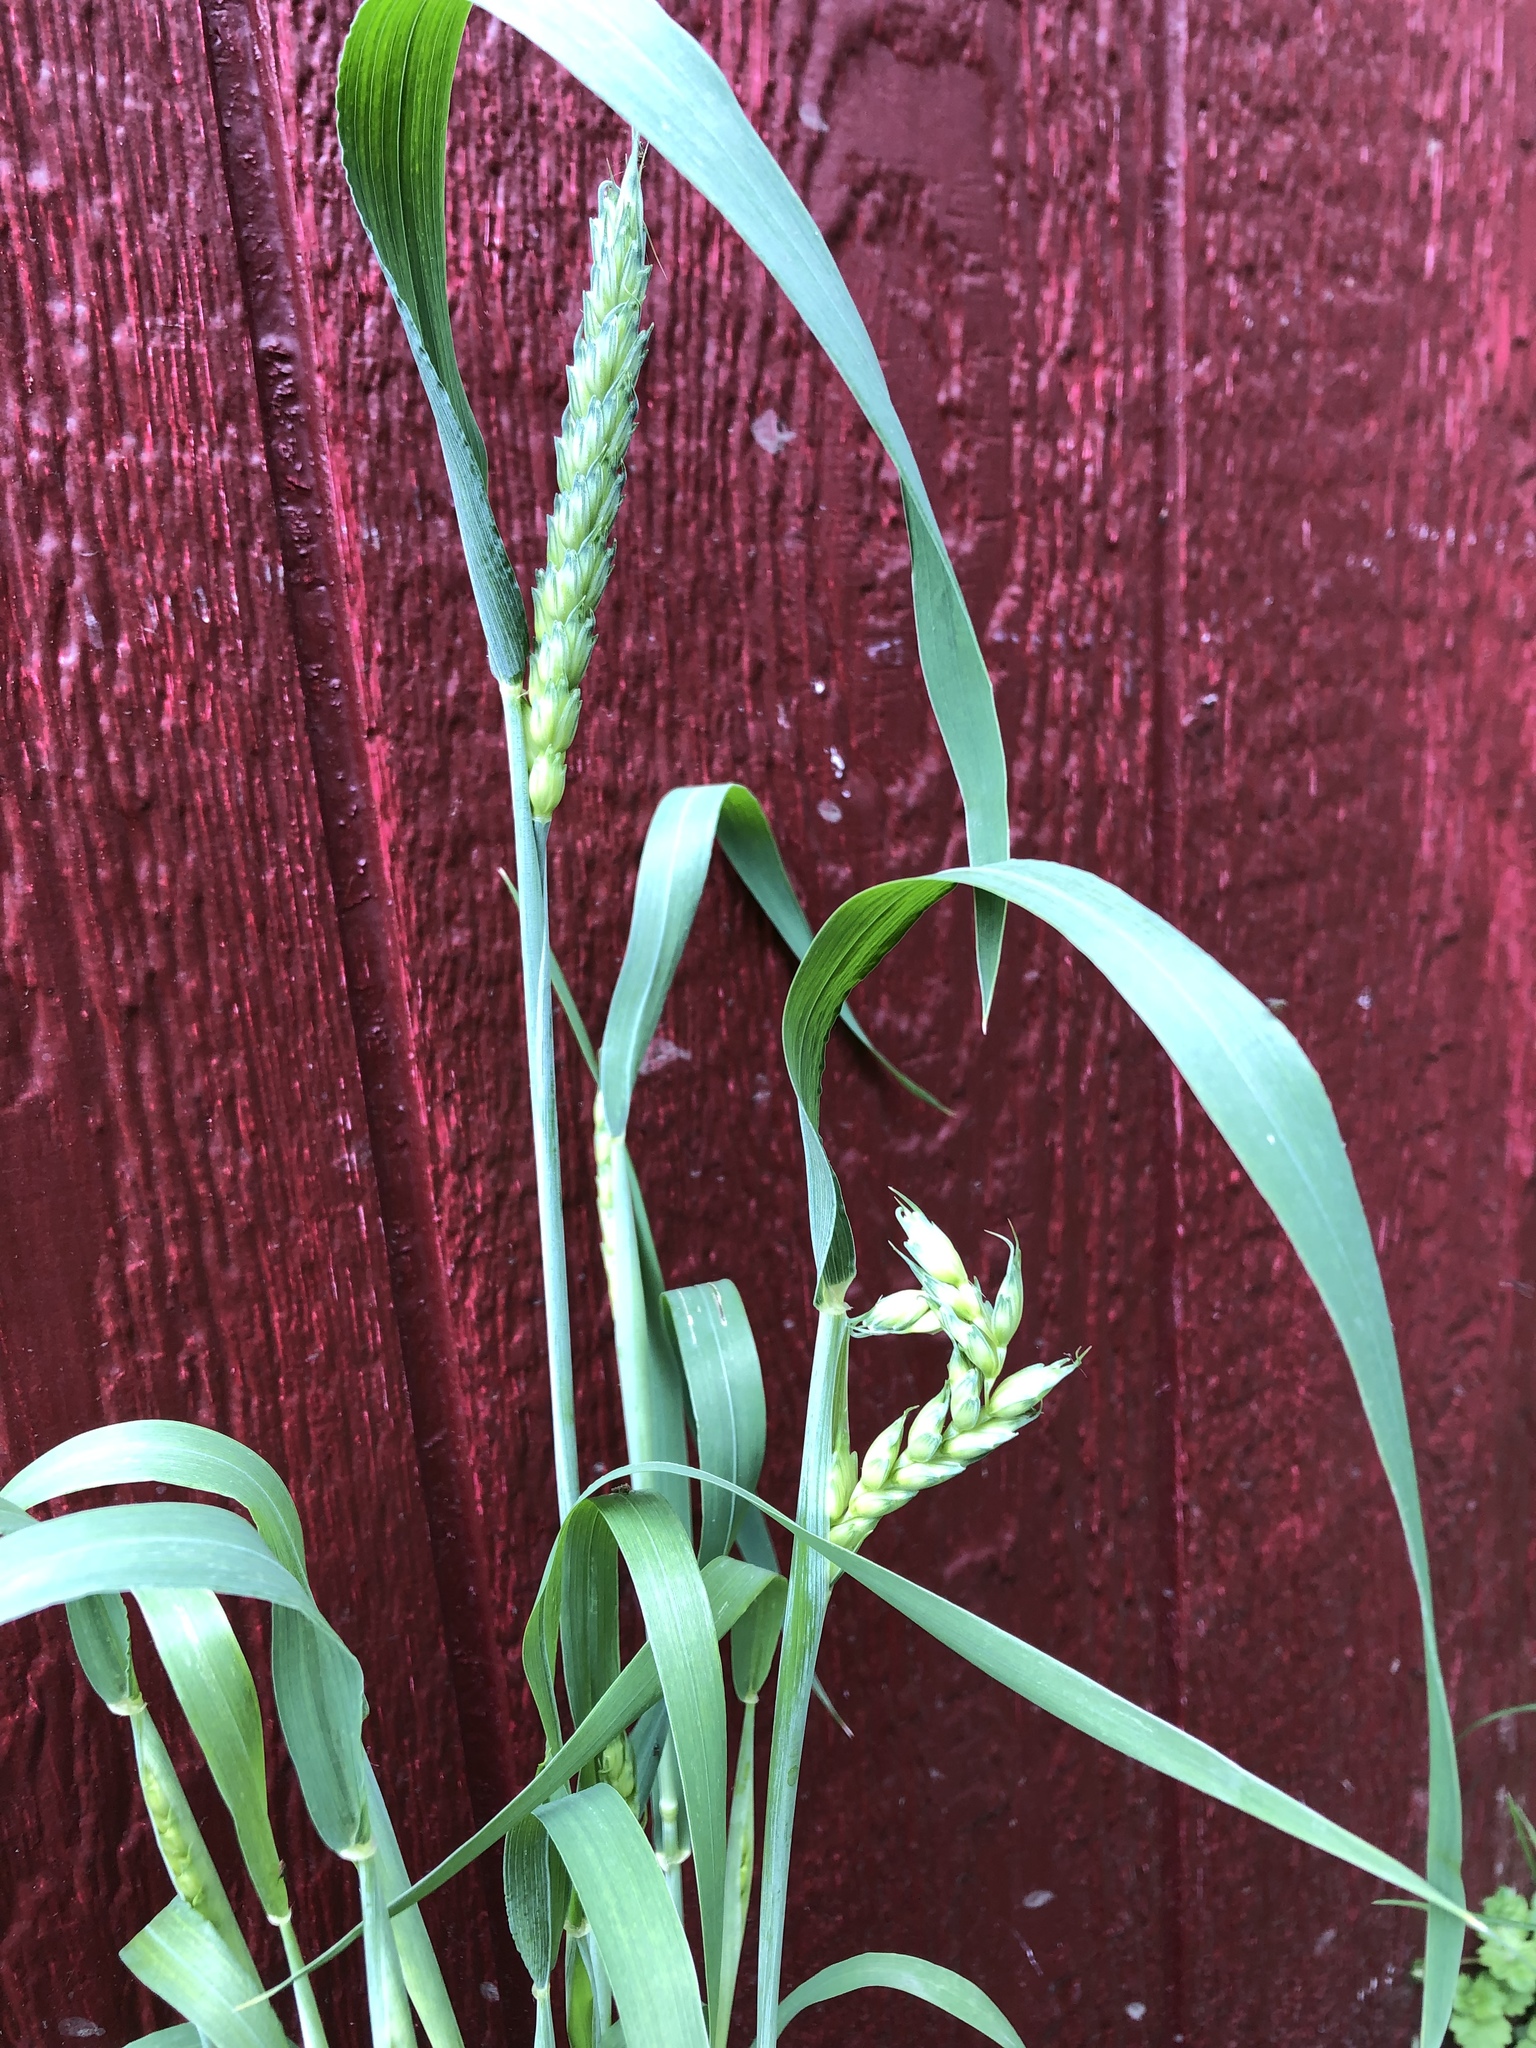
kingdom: Plantae
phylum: Tracheophyta
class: Liliopsida
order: Poales
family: Poaceae
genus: Triticum
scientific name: Triticum aestivum
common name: Common wheat
